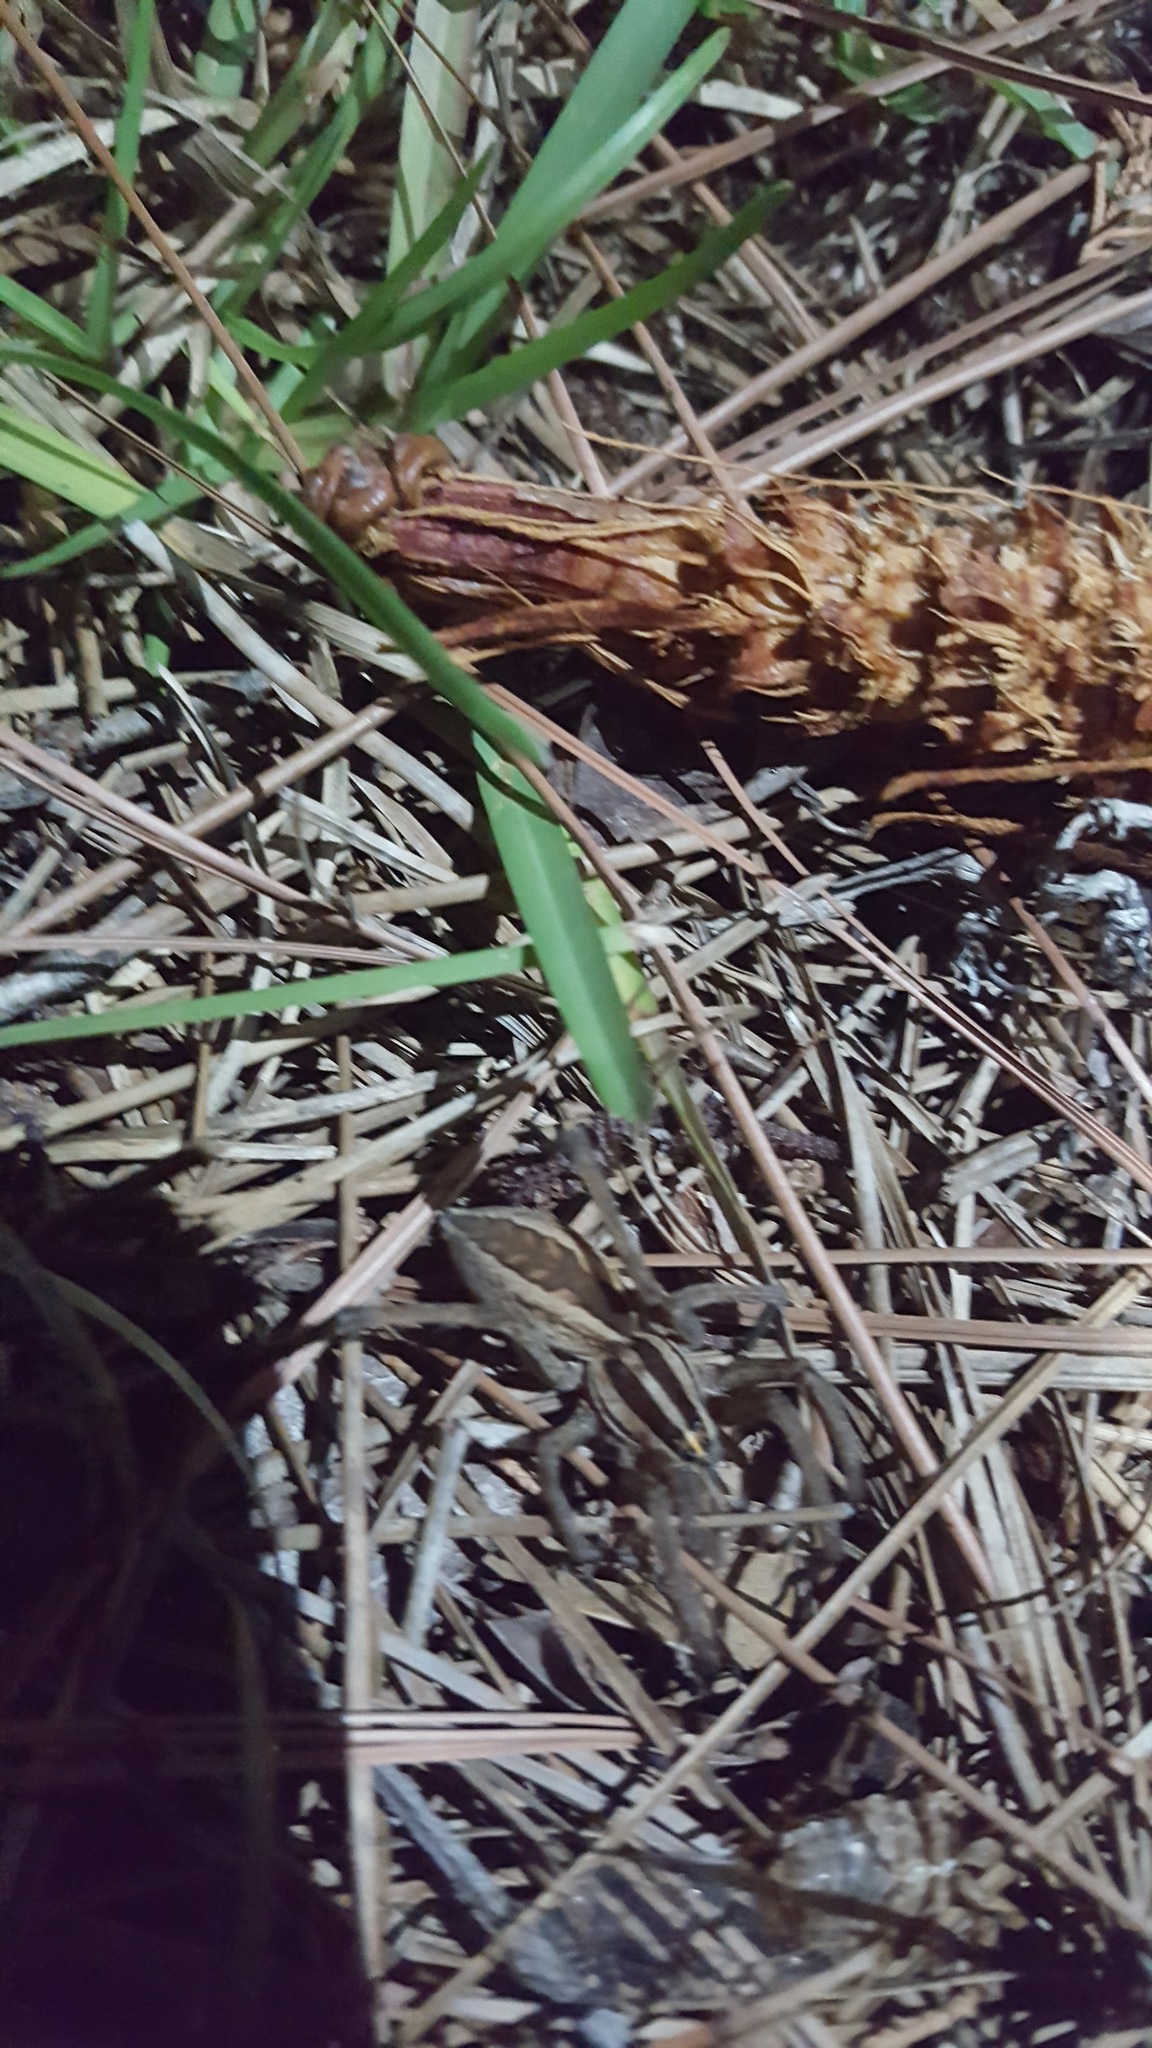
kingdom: Animalia
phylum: Arthropoda
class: Arachnida
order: Araneae
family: Lycosidae
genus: Rabidosa
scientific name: Rabidosa rabida
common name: Rabid wolf spider
